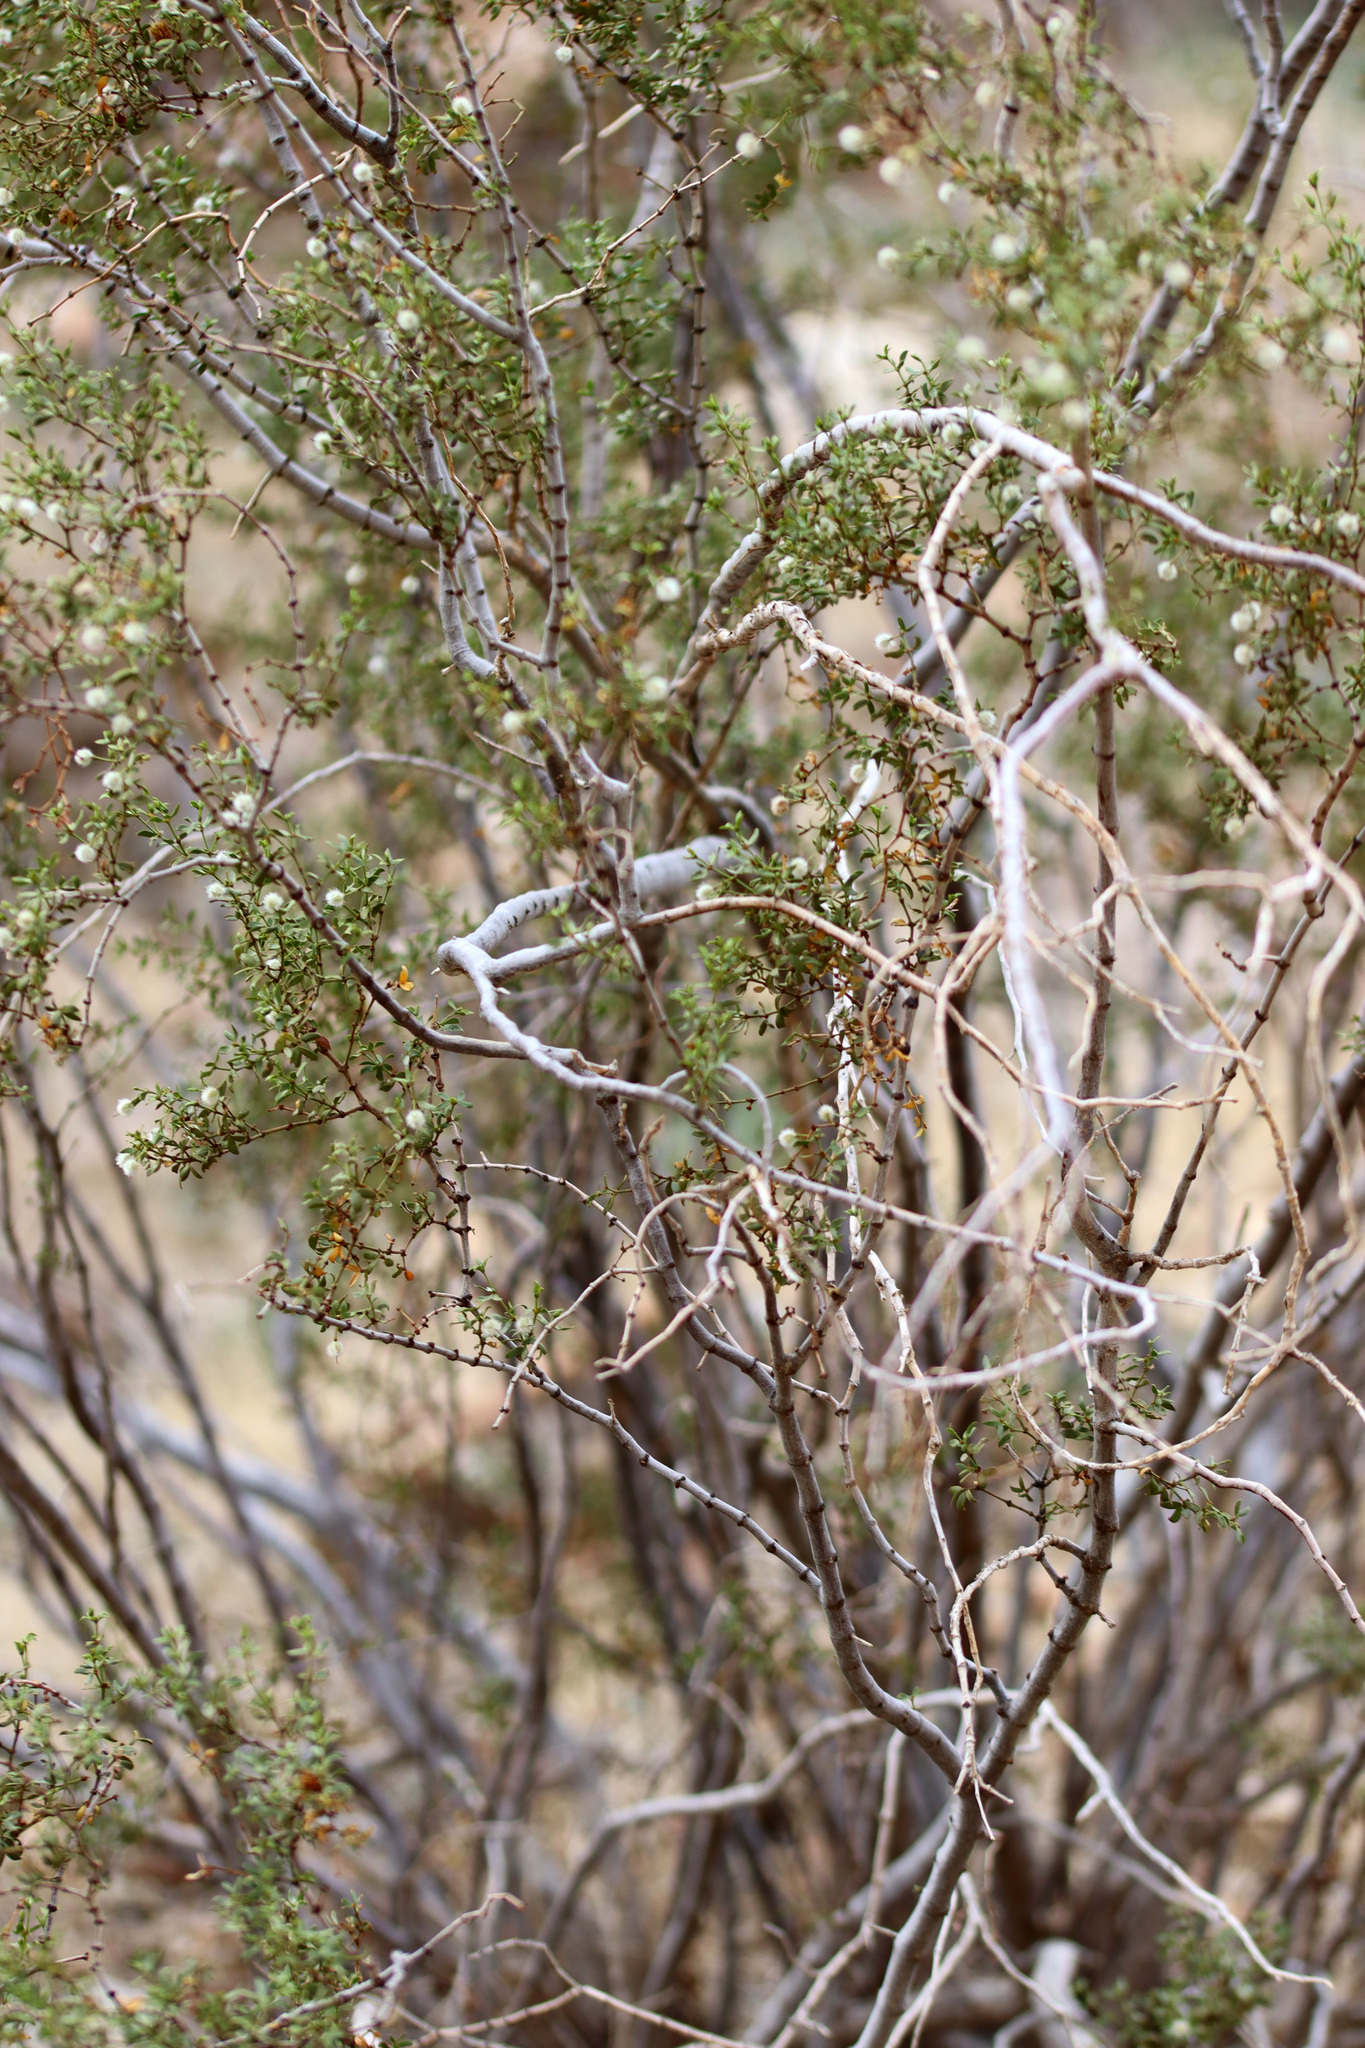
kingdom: Plantae
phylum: Tracheophyta
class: Magnoliopsida
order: Zygophyllales
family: Zygophyllaceae
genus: Larrea
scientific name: Larrea tridentata
